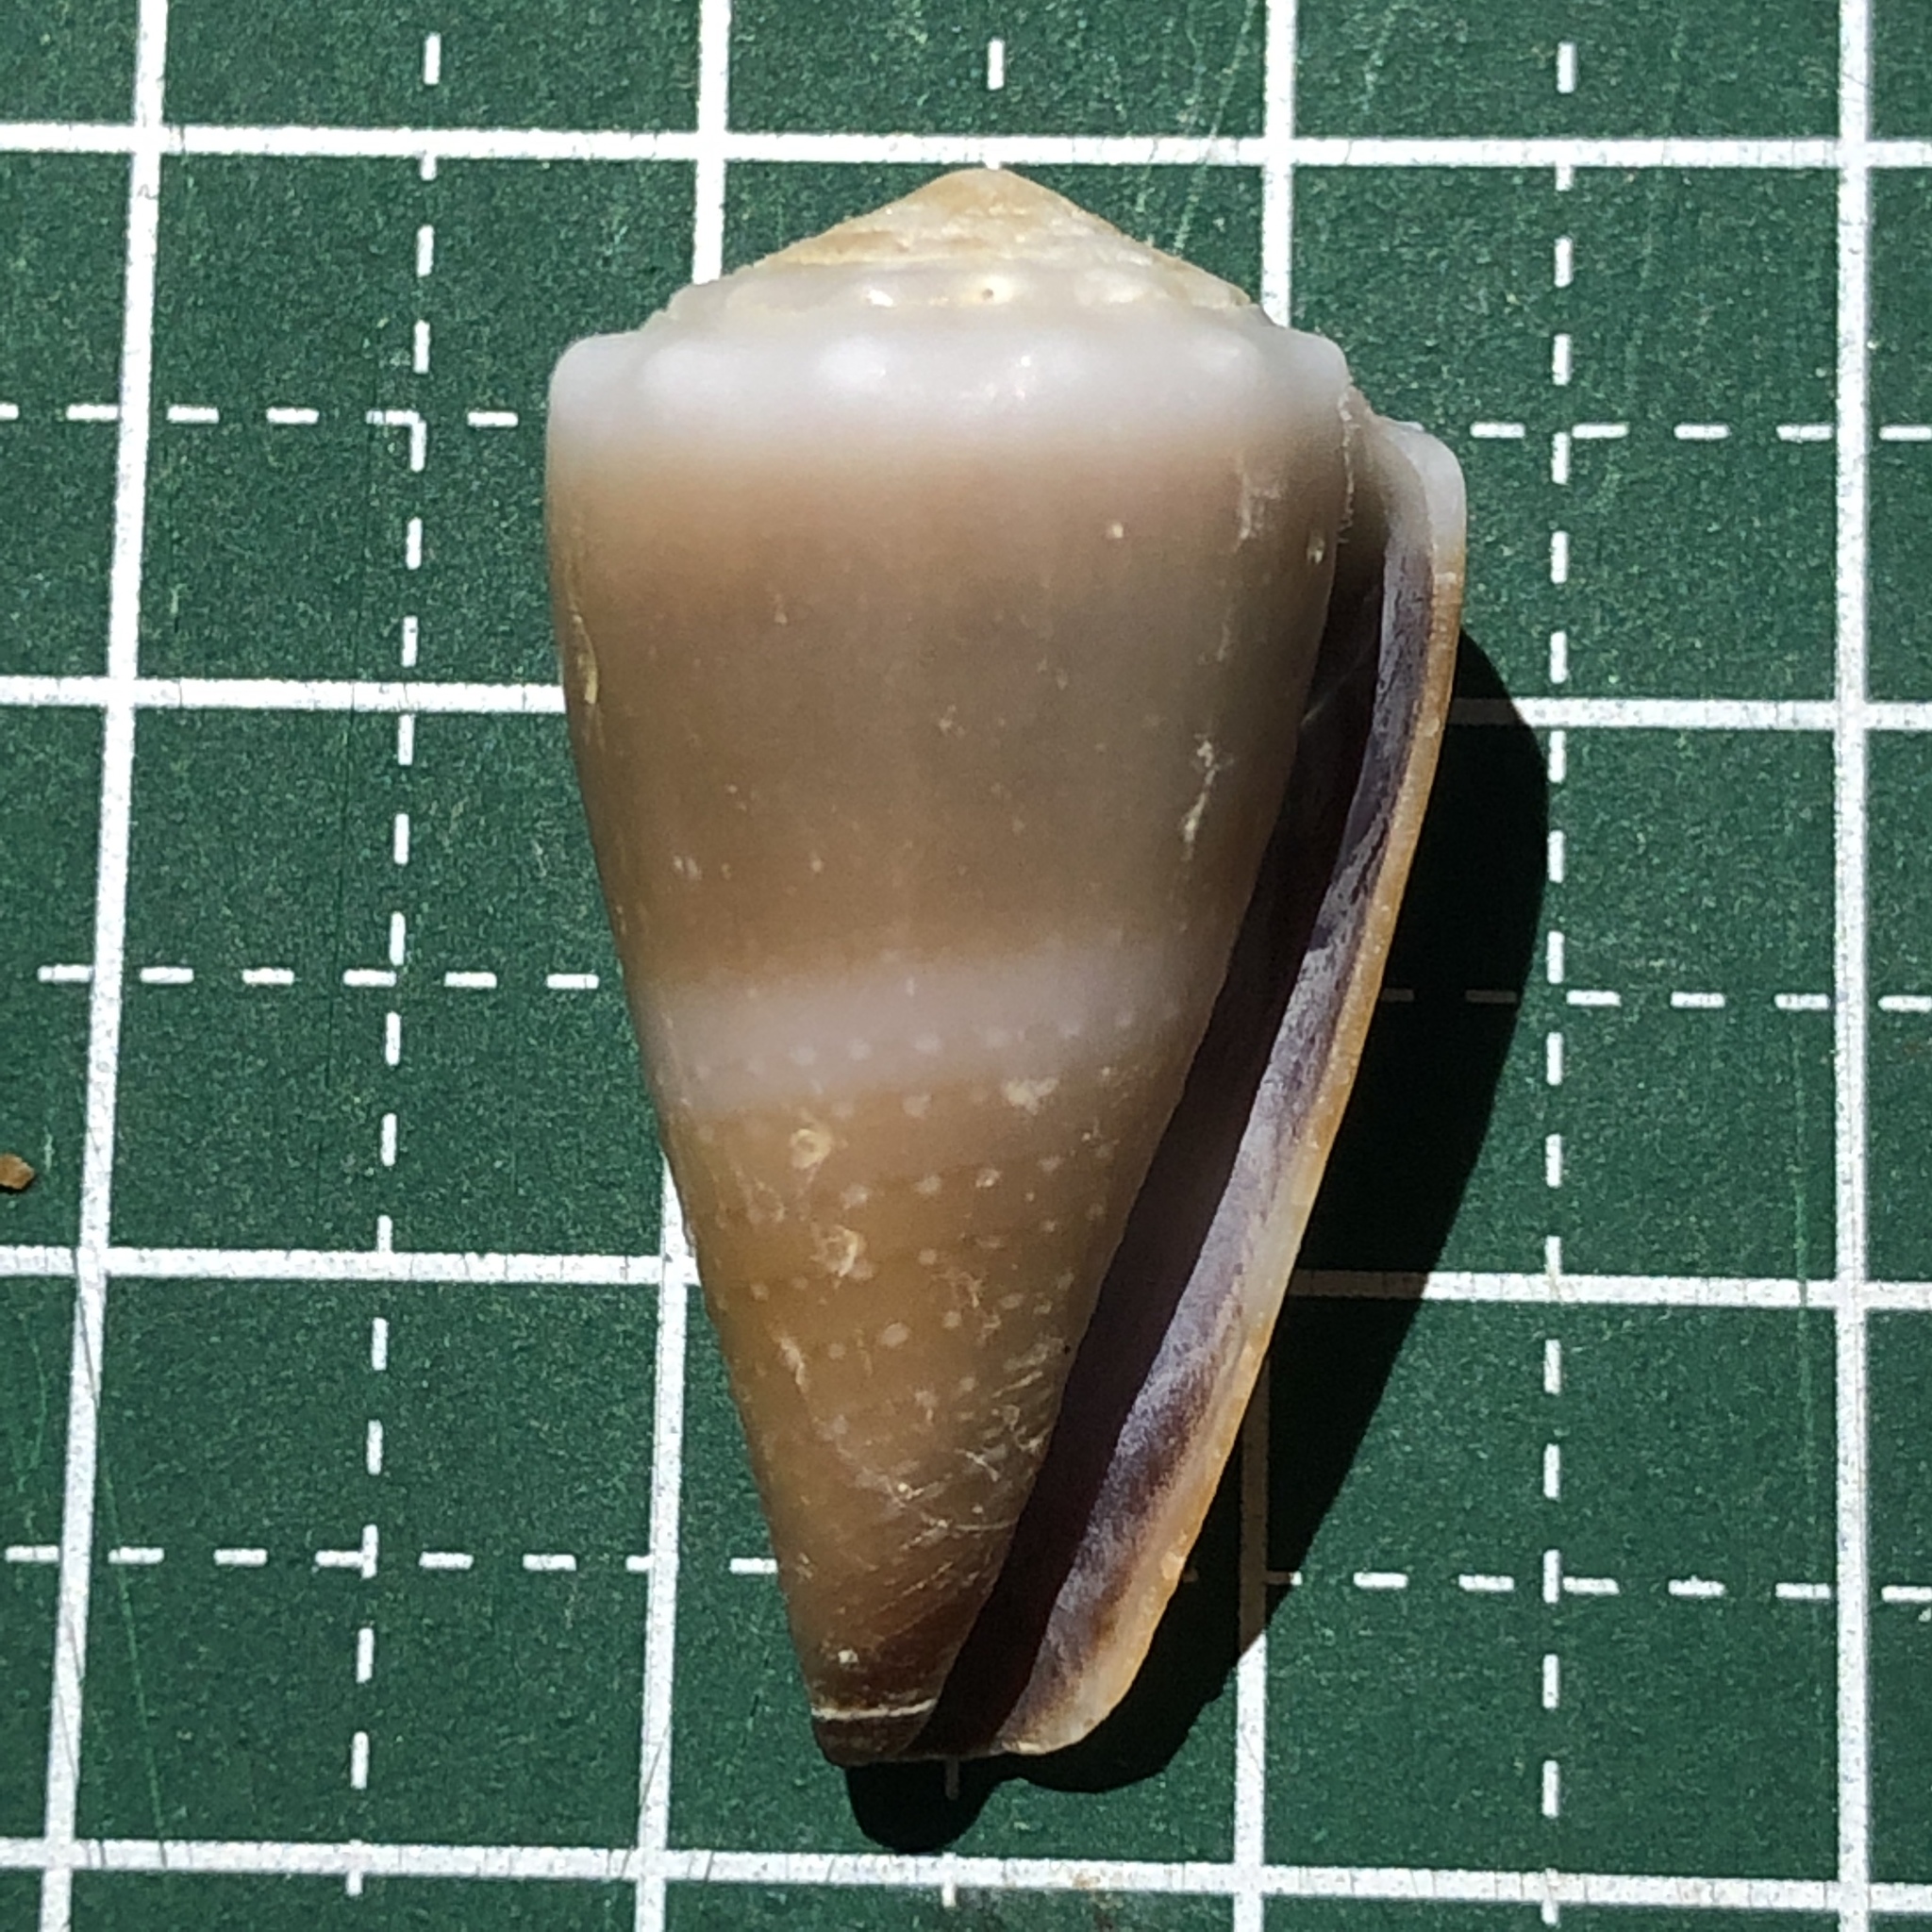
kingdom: Animalia
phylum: Mollusca
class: Gastropoda
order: Neogastropoda
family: Conidae
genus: Conus
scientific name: Conus lividus
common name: Livid cone
